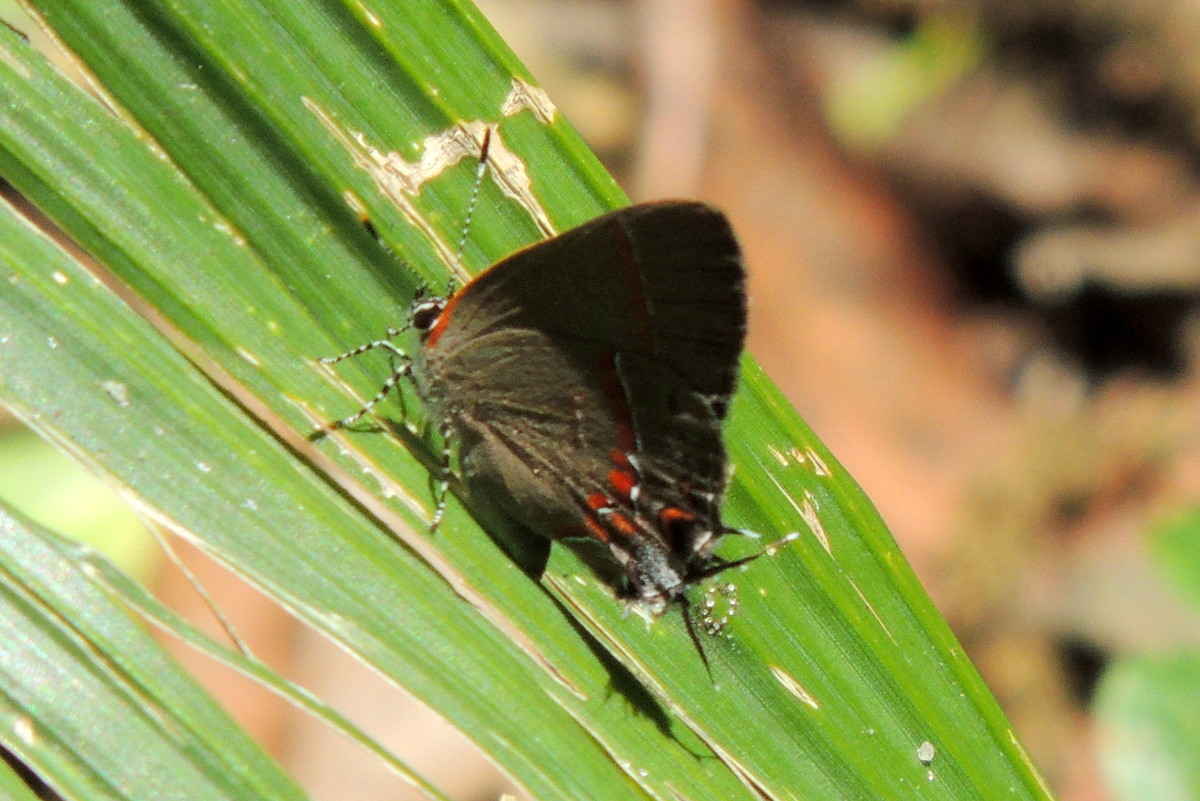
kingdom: Animalia
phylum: Arthropoda
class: Insecta
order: Lepidoptera
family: Lycaenidae
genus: Calycopis
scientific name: Calycopis cecrops
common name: Red-banded hairstreak
